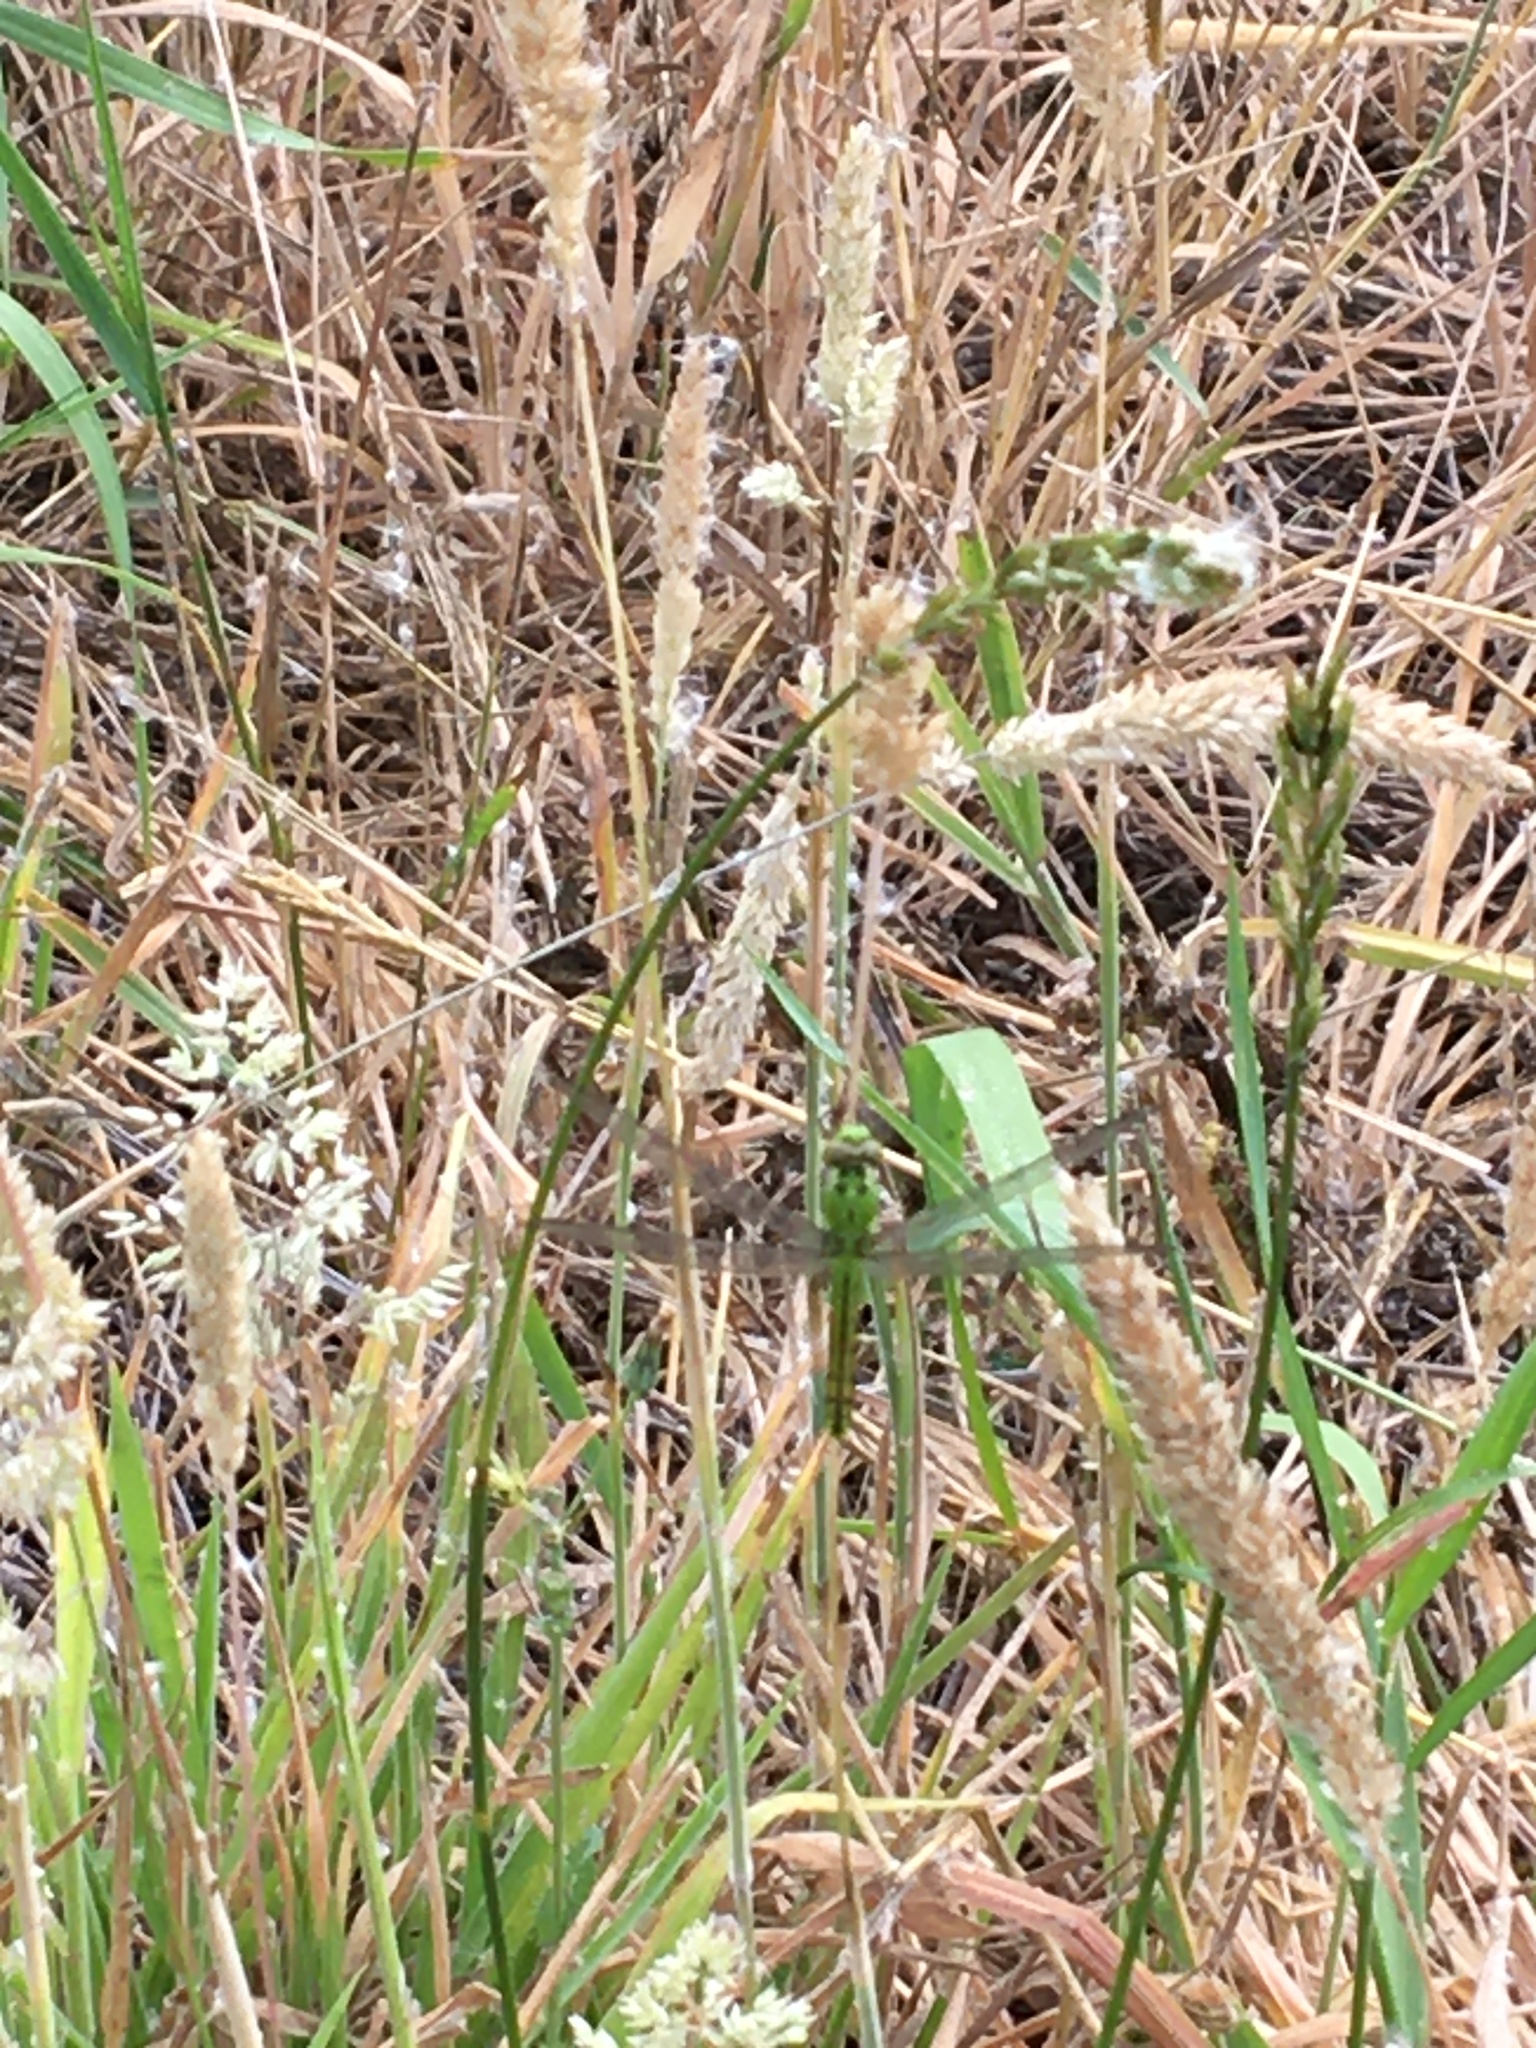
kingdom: Animalia
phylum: Arthropoda
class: Insecta
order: Odonata
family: Libellulidae
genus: Erythemis
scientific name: Erythemis collocata
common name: Western pondhawk
